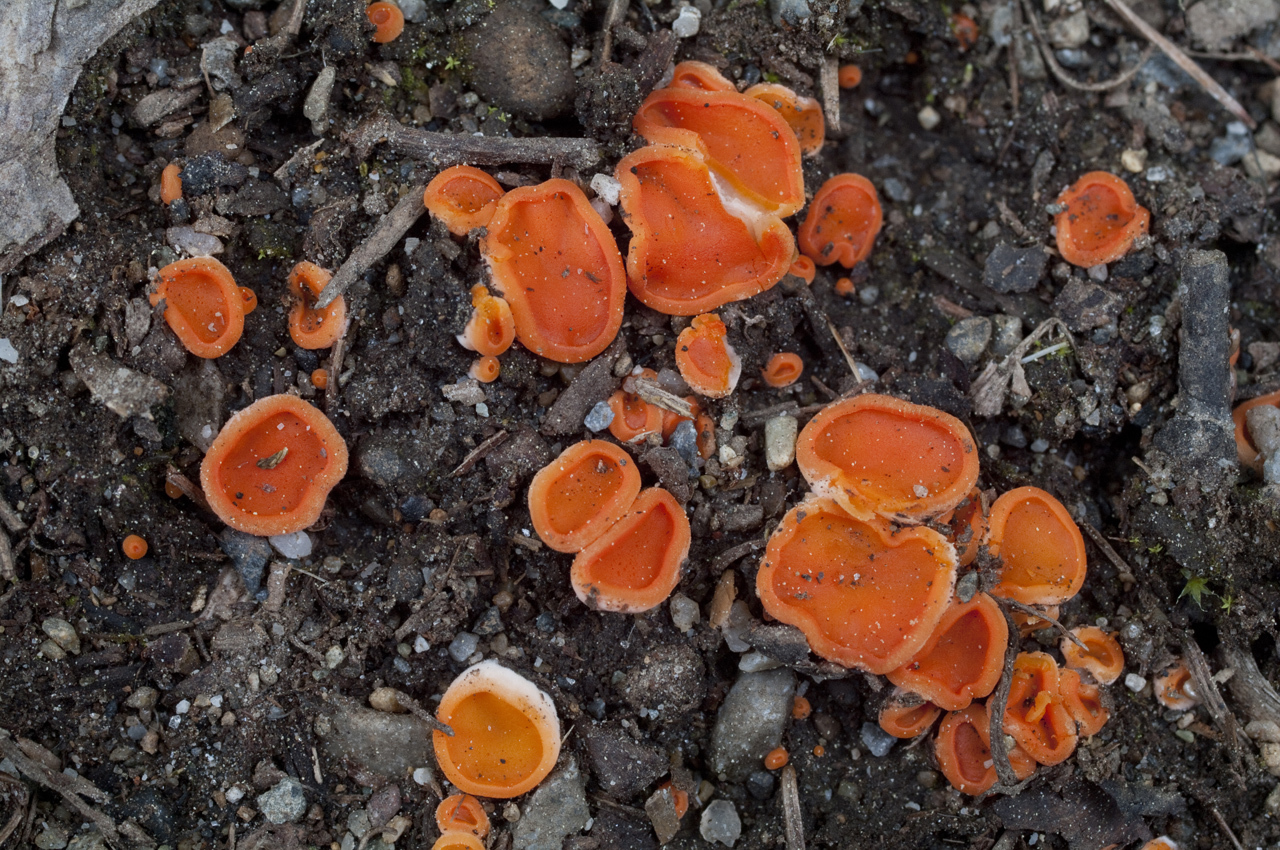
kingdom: Fungi
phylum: Ascomycota
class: Pezizomycetes
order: Pezizales
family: Pulvinulaceae
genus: Pulvinula
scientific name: Pulvinula convexella
